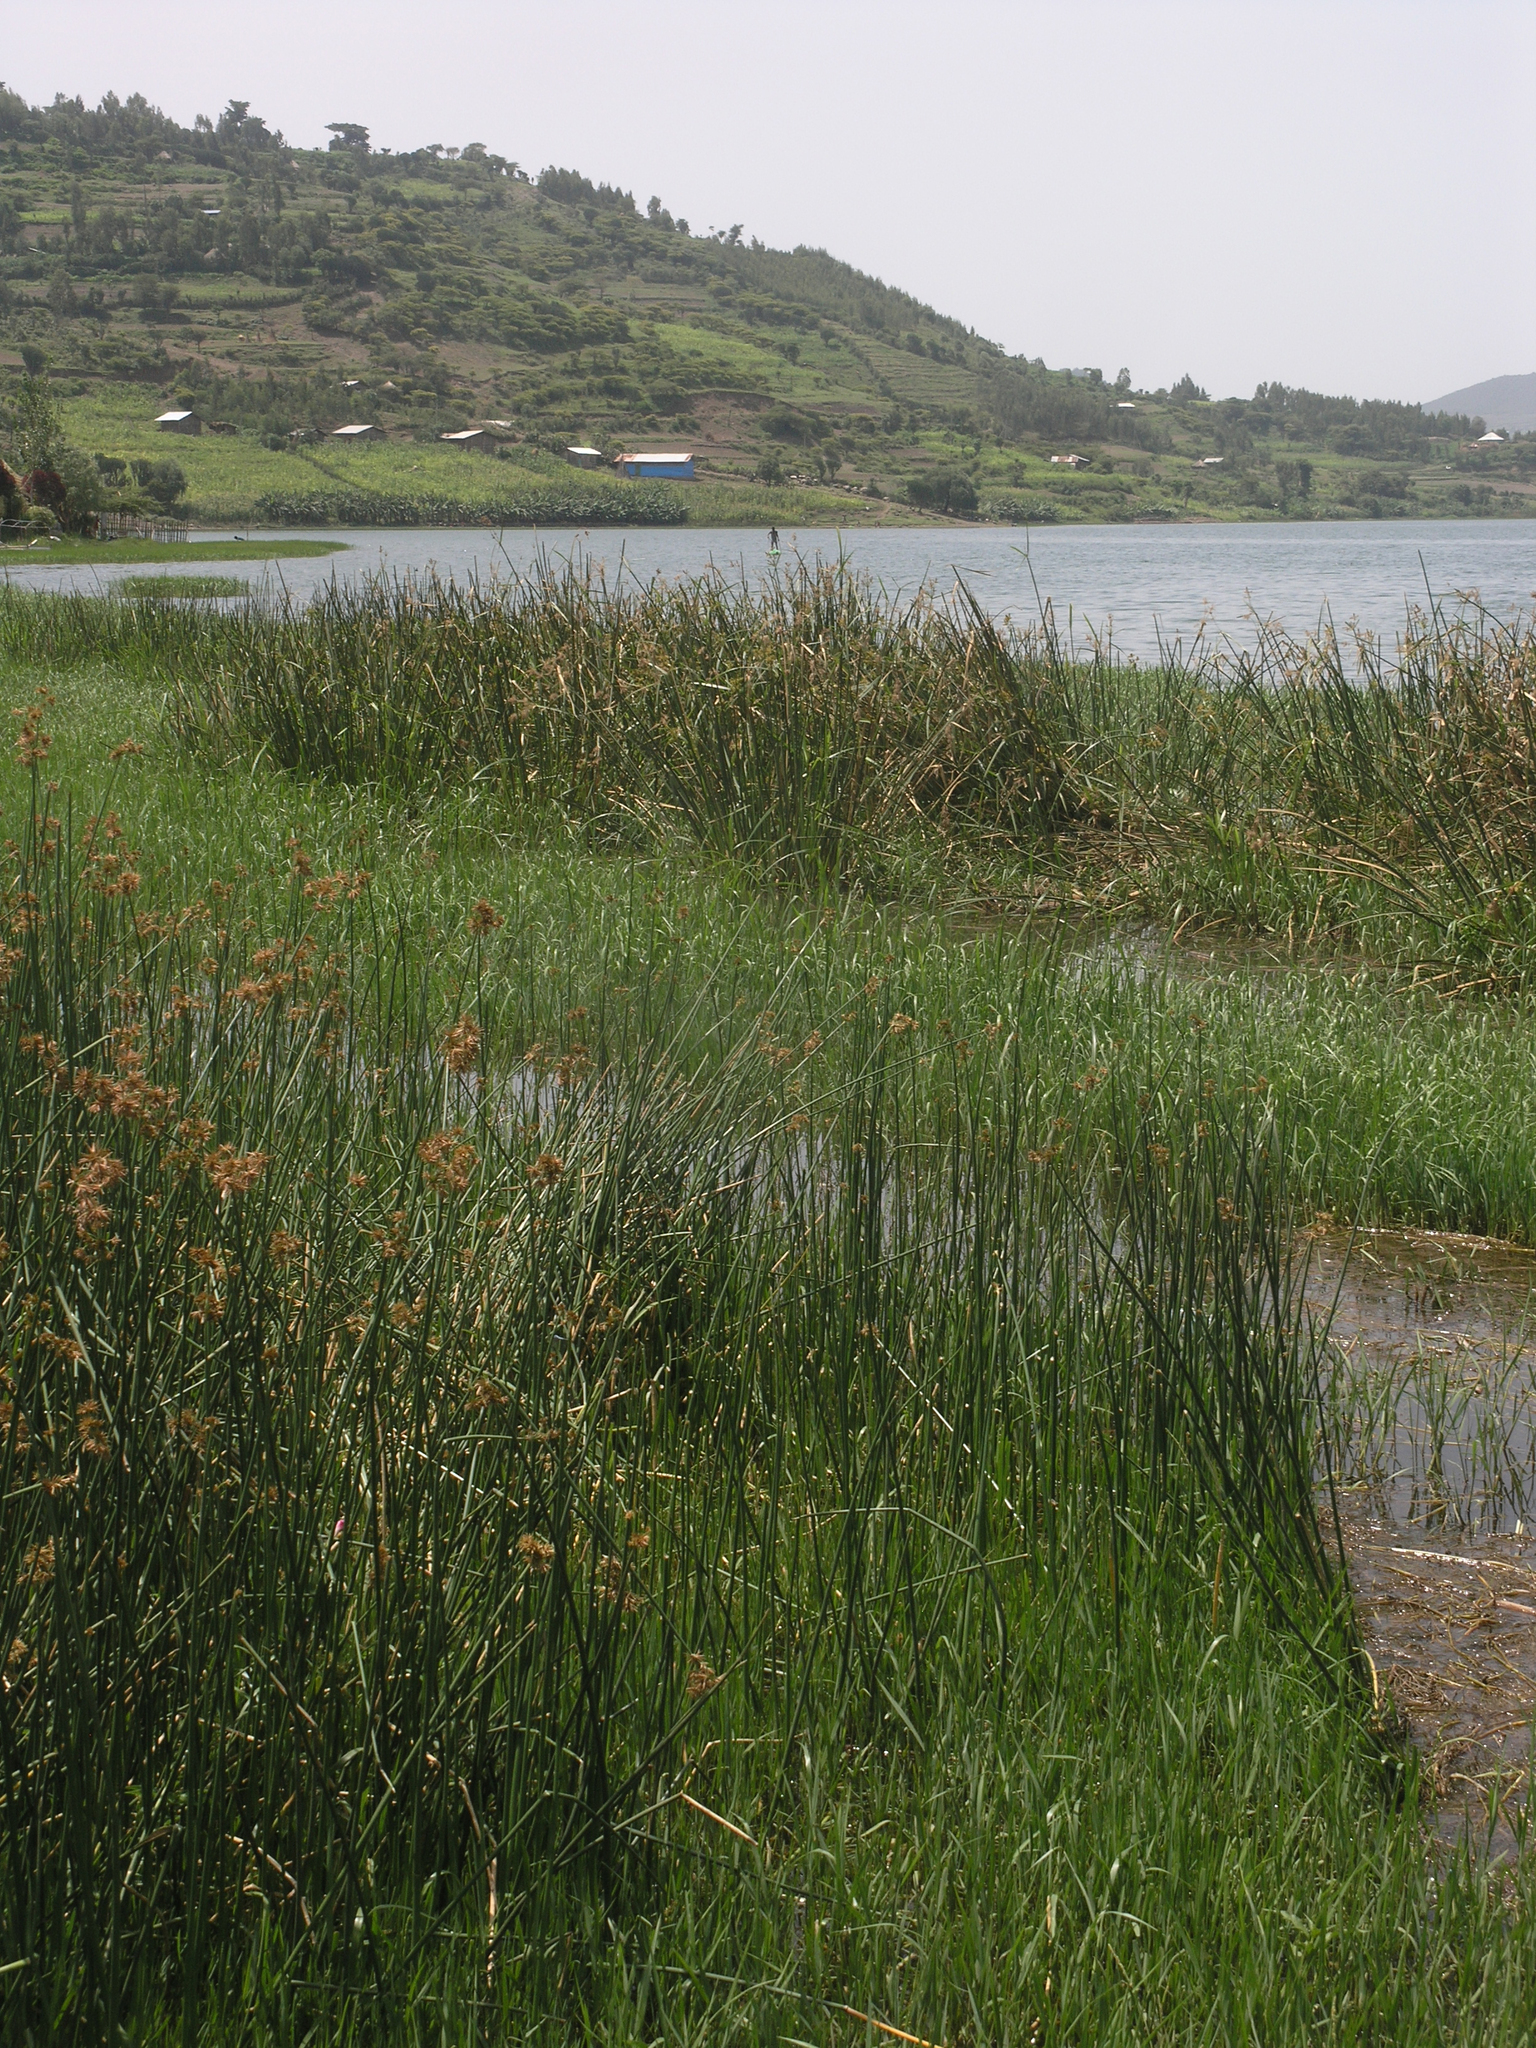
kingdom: Animalia
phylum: Arthropoda
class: Insecta
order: Odonata
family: Libellulidae
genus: Trithemis
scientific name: Trithemis annulata
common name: Violet dropwing
